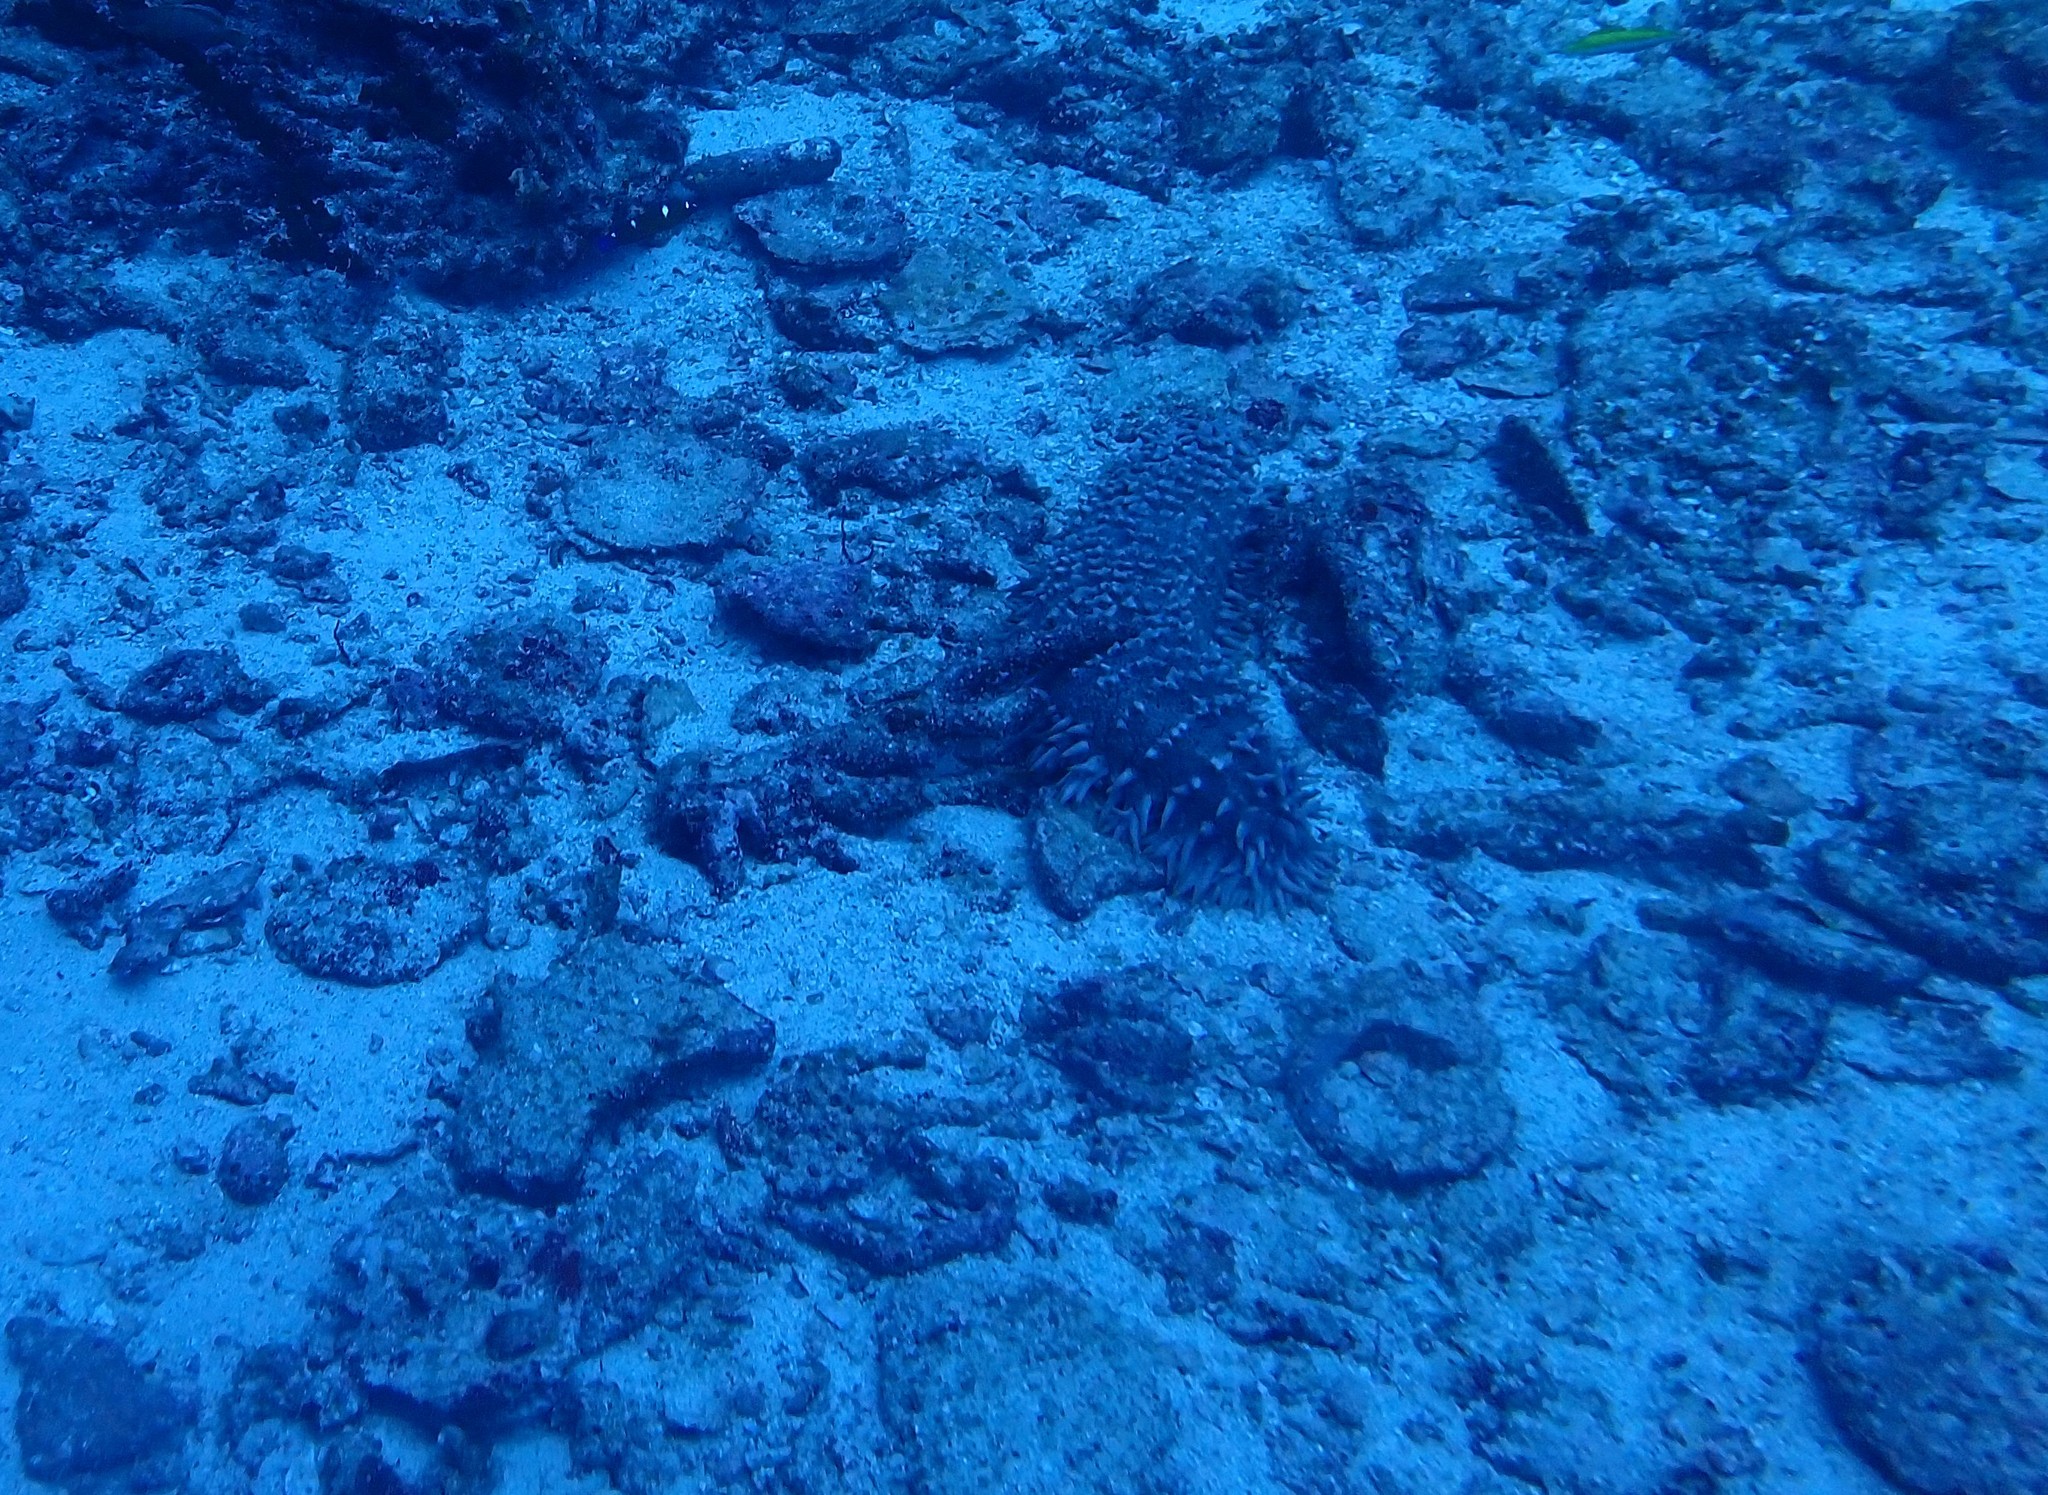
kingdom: Animalia
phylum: Echinodermata
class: Holothuroidea
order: Synallactida
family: Stichopodidae
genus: Thelenota
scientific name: Thelenota ananas
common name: Prickly redfish
